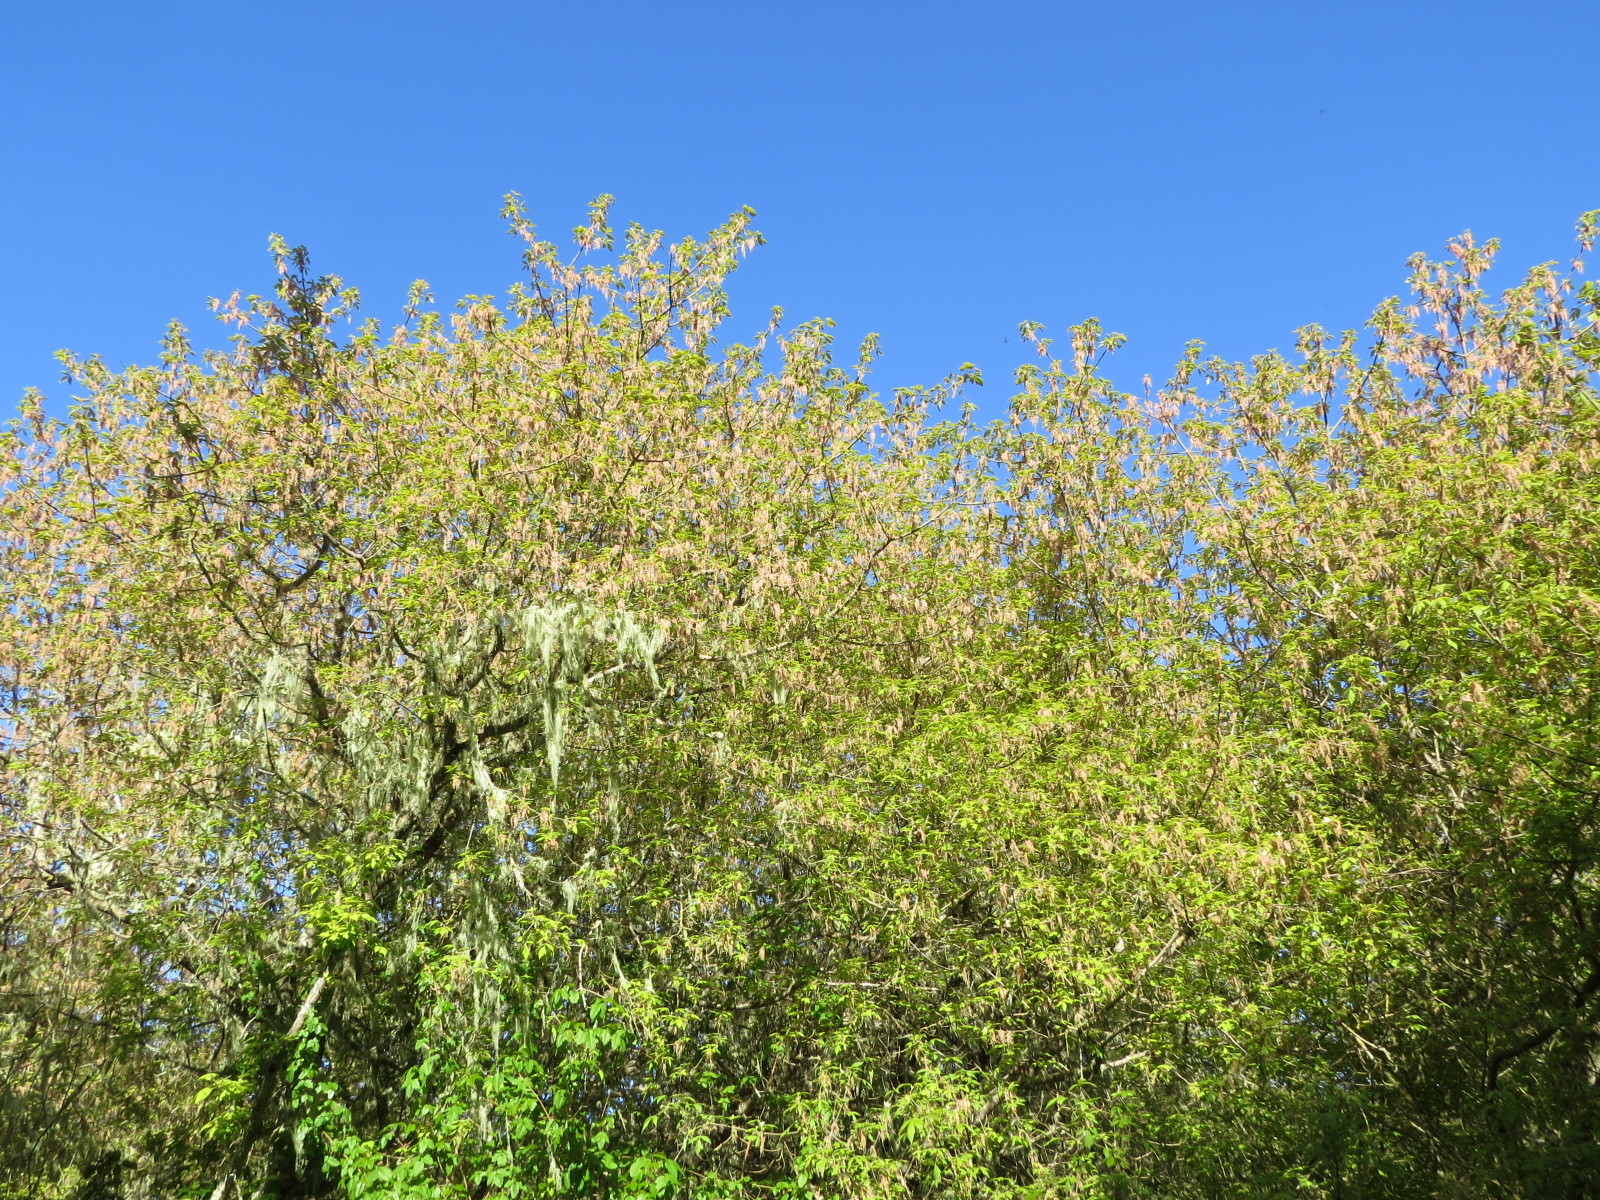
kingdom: Plantae
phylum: Tracheophyta
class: Magnoliopsida
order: Sapindales
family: Sapindaceae
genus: Acer
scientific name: Acer negundo
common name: Ashleaf maple
